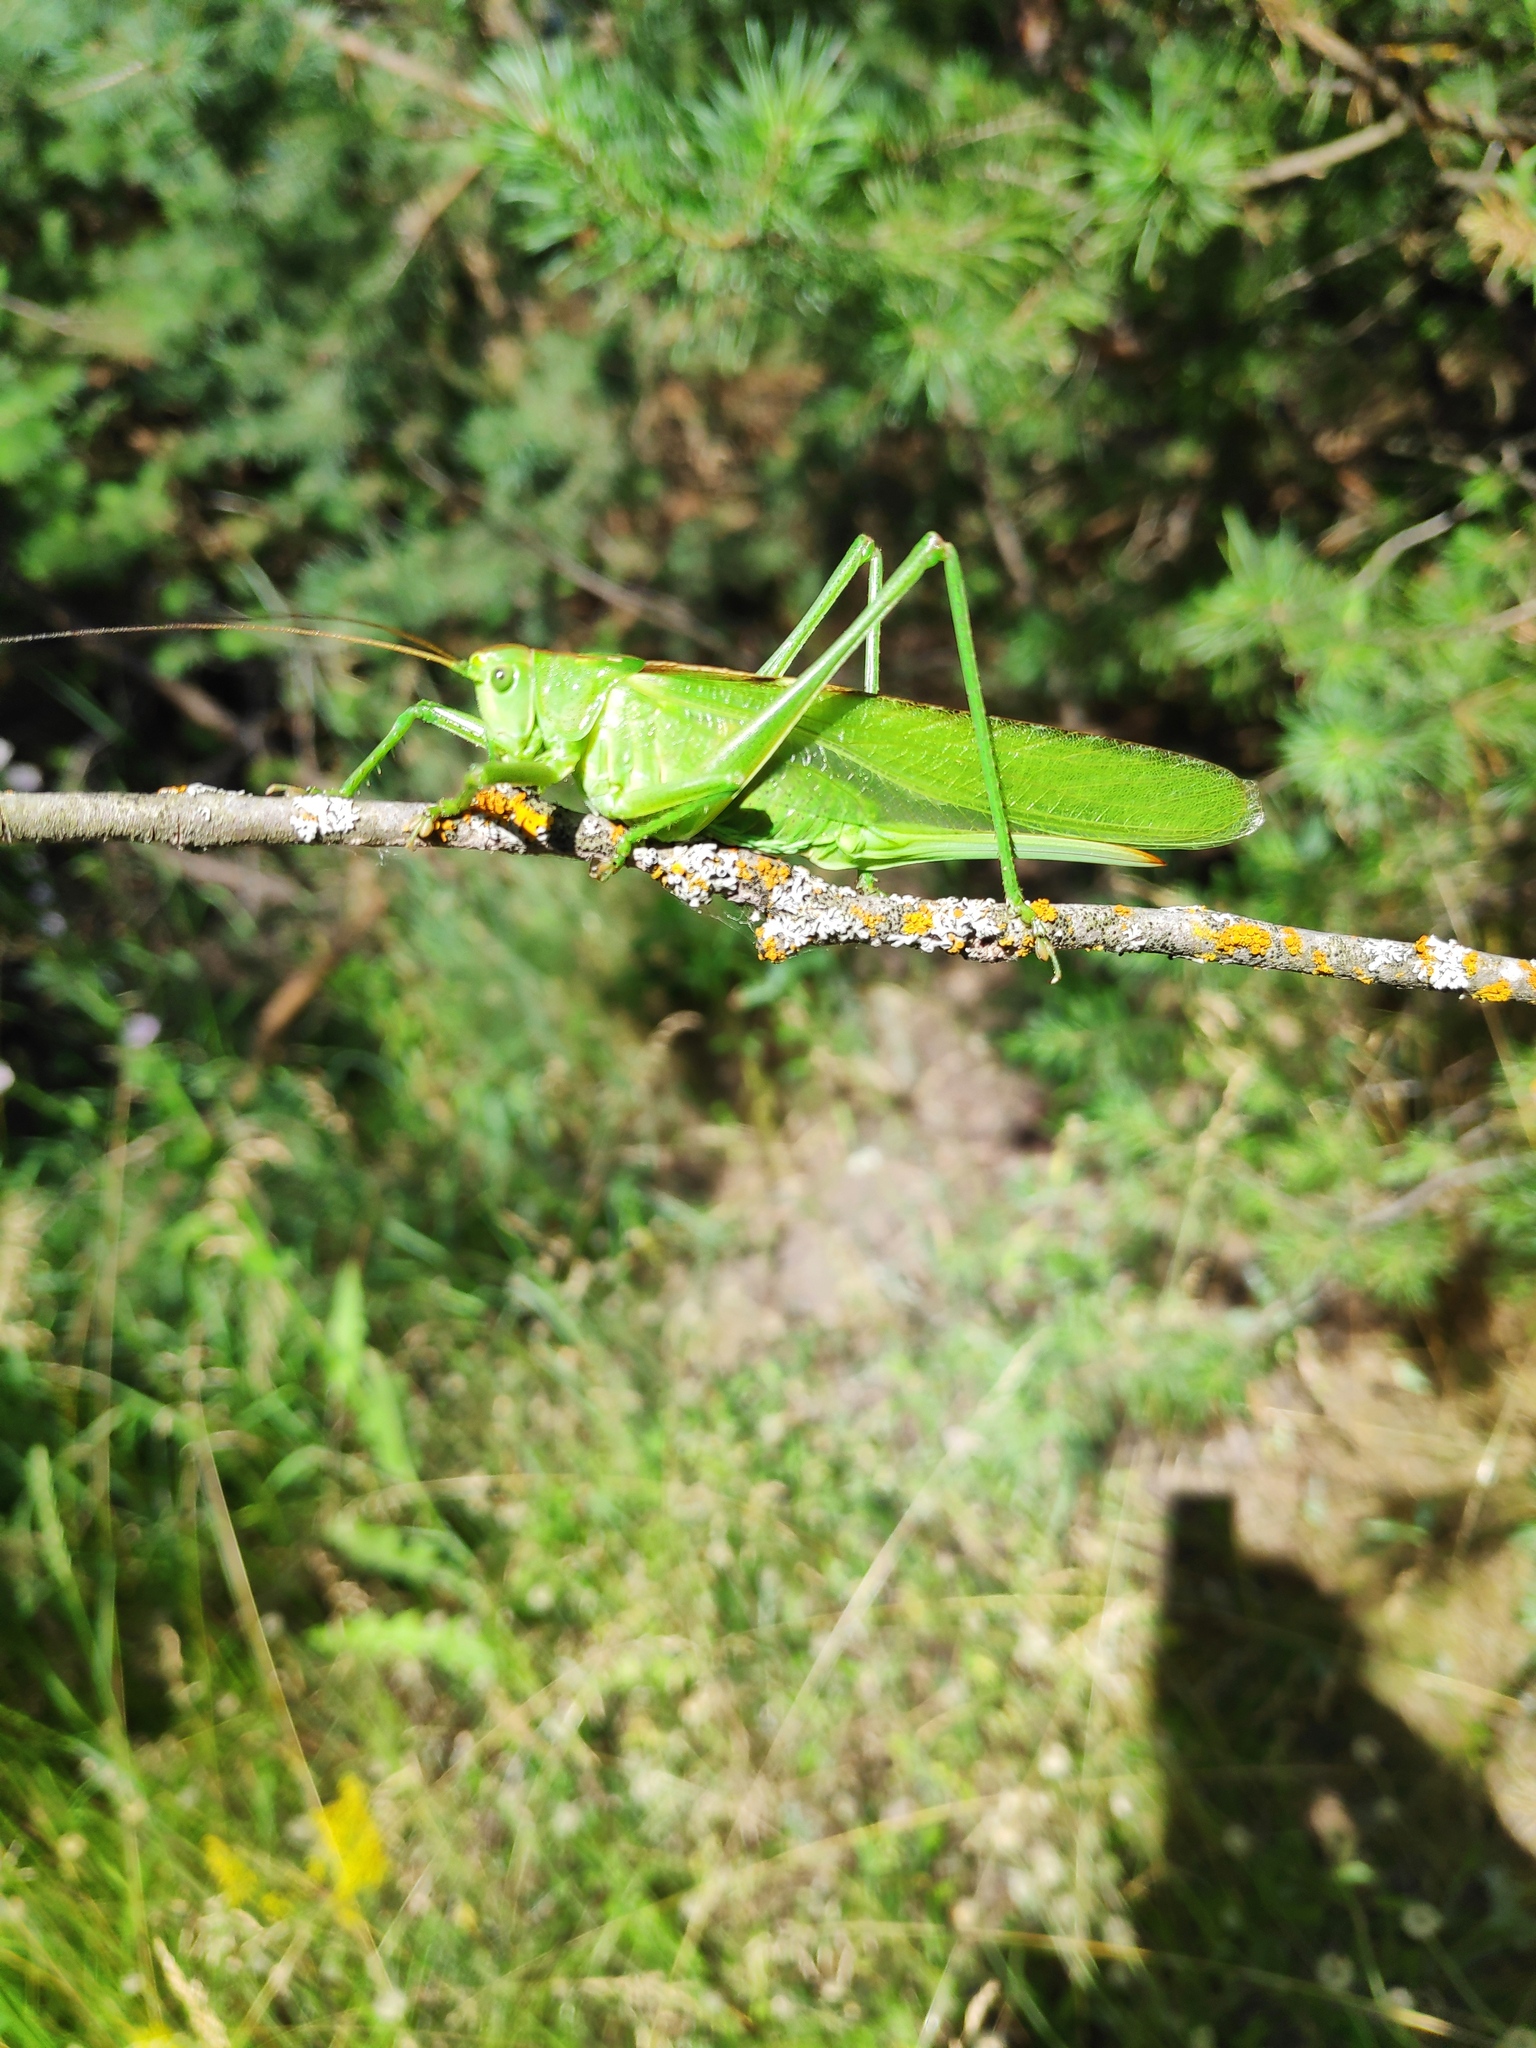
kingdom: Animalia
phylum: Arthropoda
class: Insecta
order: Orthoptera
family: Tettigoniidae
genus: Tettigonia
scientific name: Tettigonia viridissima
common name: Great green bush-cricket
